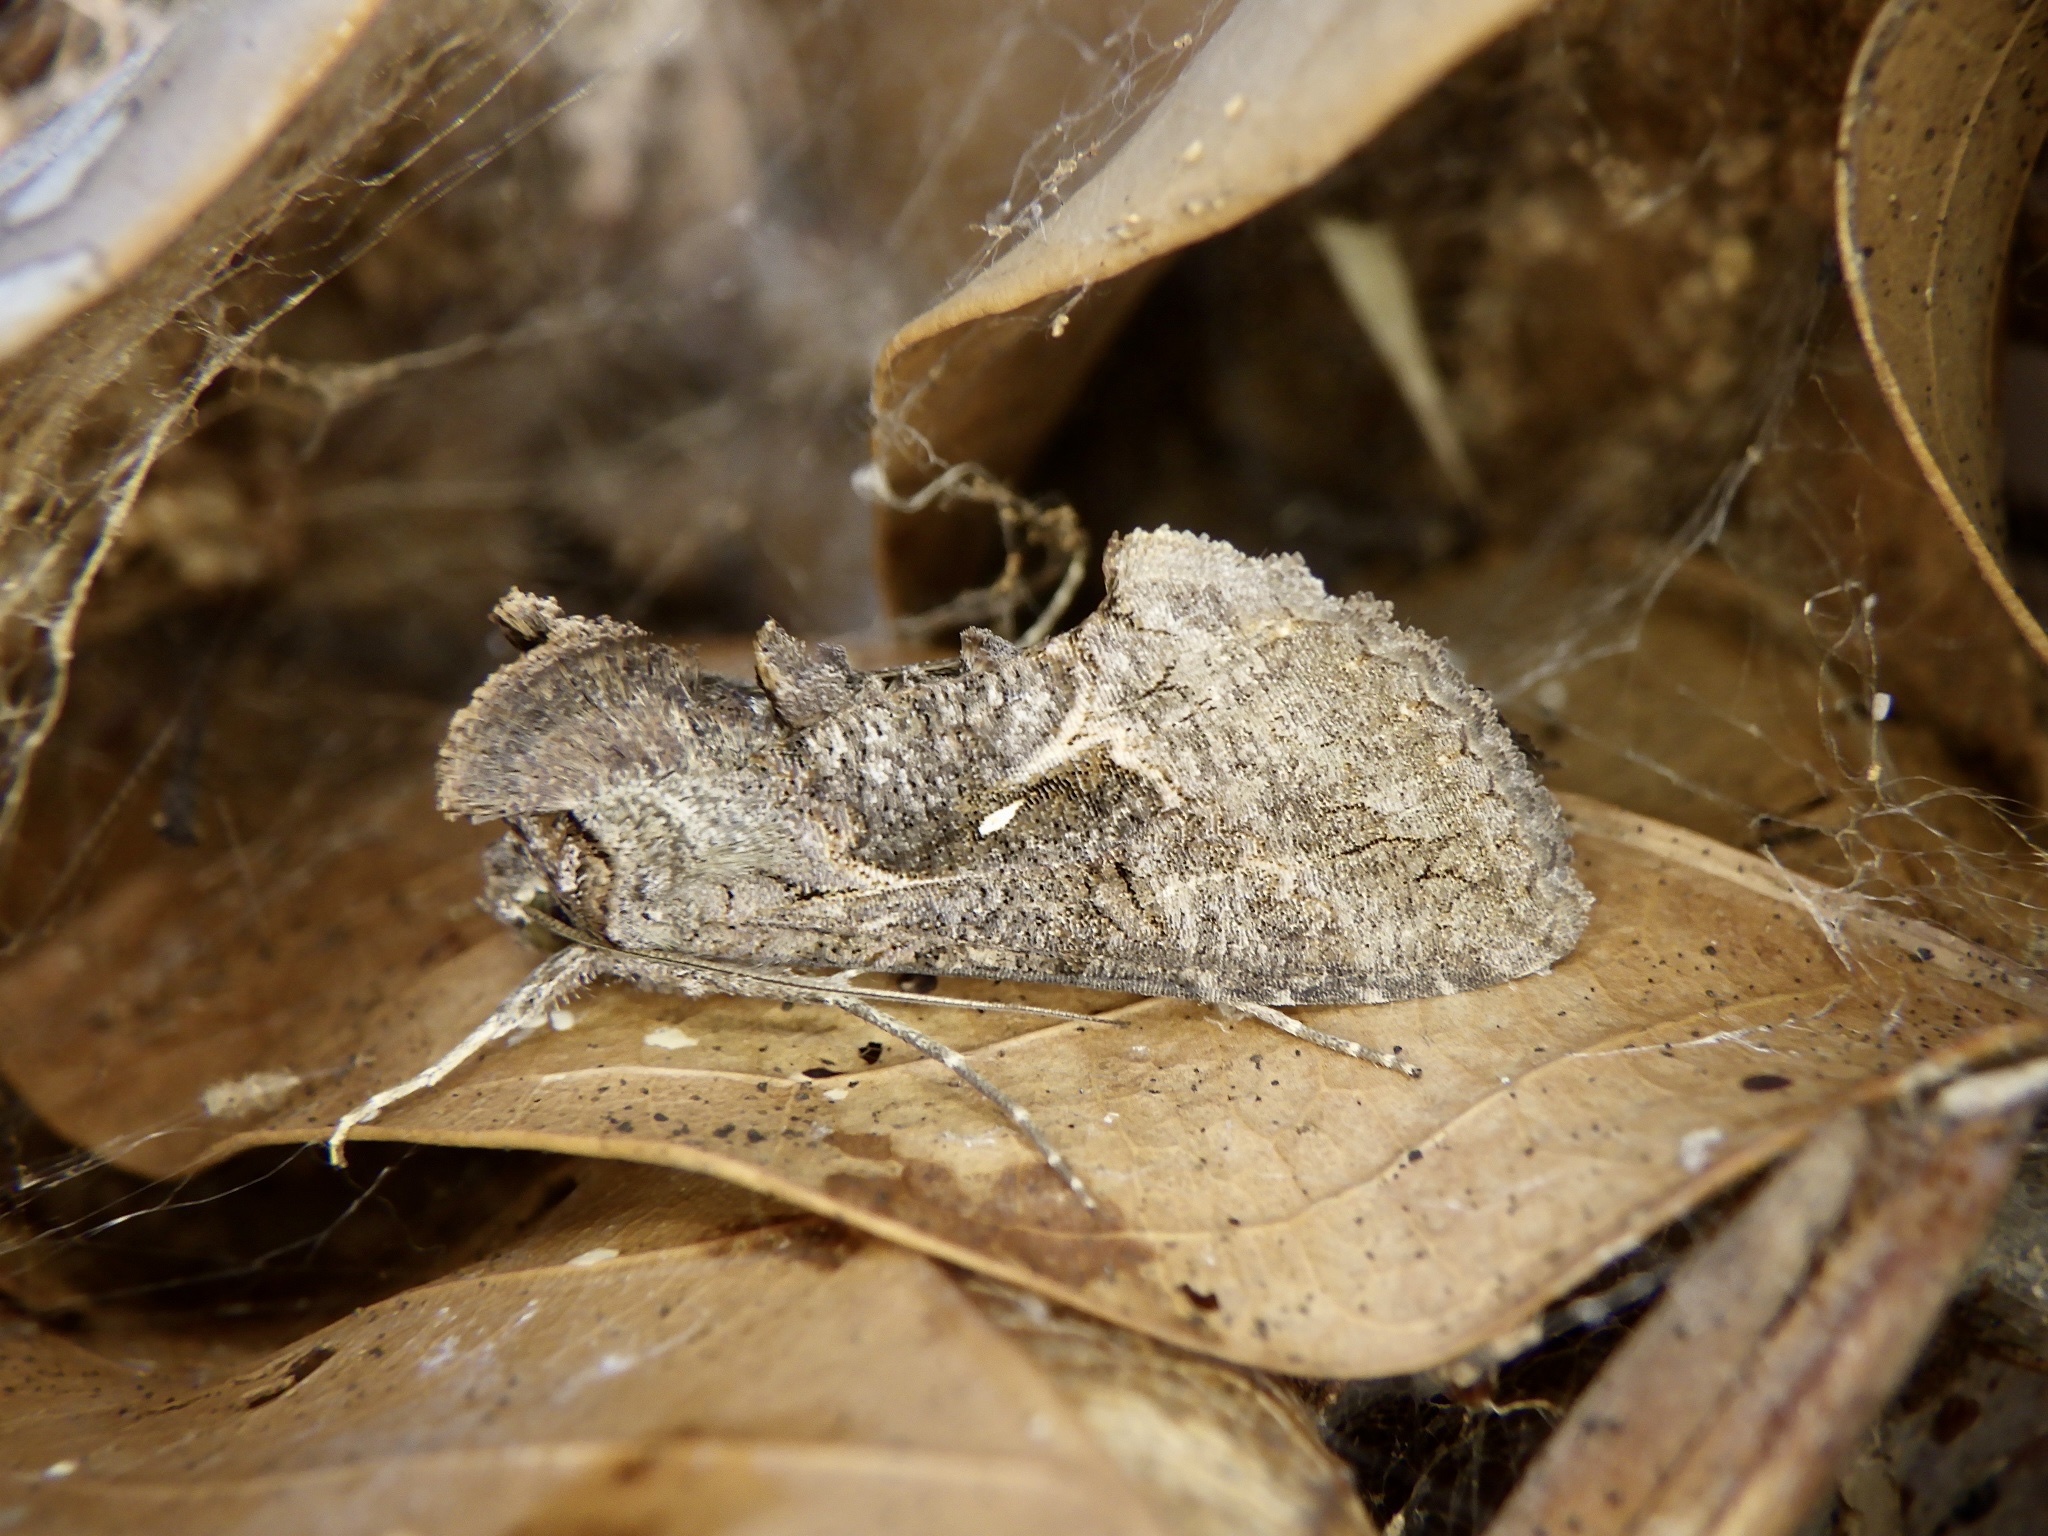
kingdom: Animalia
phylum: Arthropoda
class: Insecta
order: Lepidoptera
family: Noctuidae
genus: Ctenoplusia
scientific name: Ctenoplusia albostriata
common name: Moth
